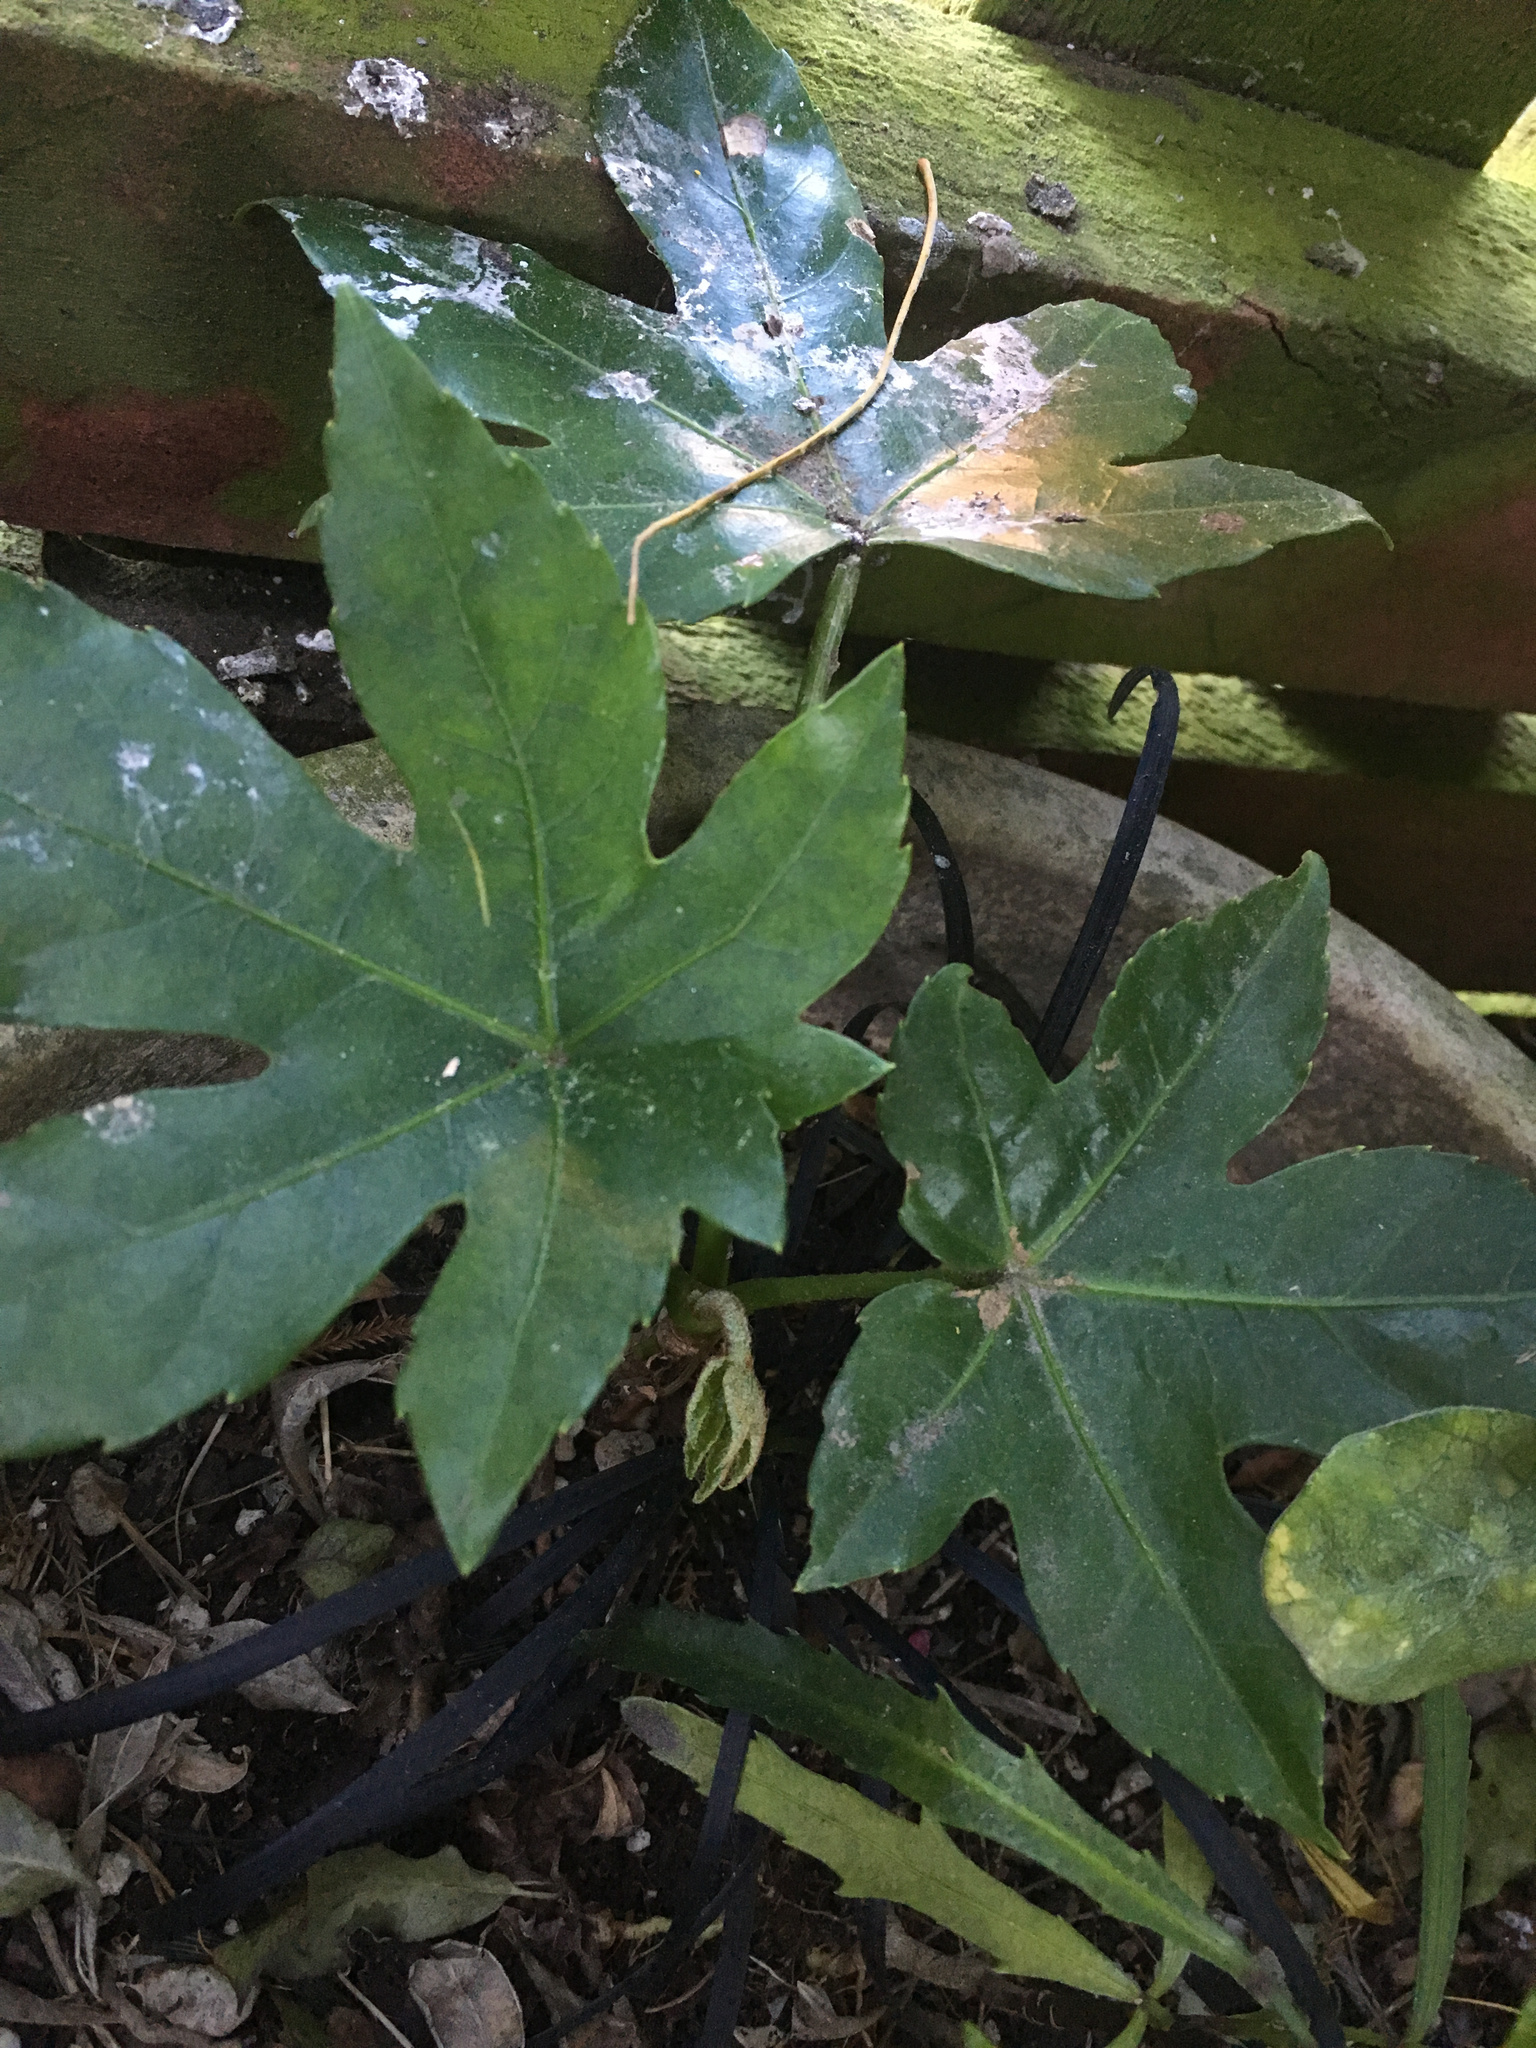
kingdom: Plantae
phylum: Tracheophyta
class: Magnoliopsida
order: Apiales
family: Araliaceae
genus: Fatsia
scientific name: Fatsia japonica
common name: Fatsia
